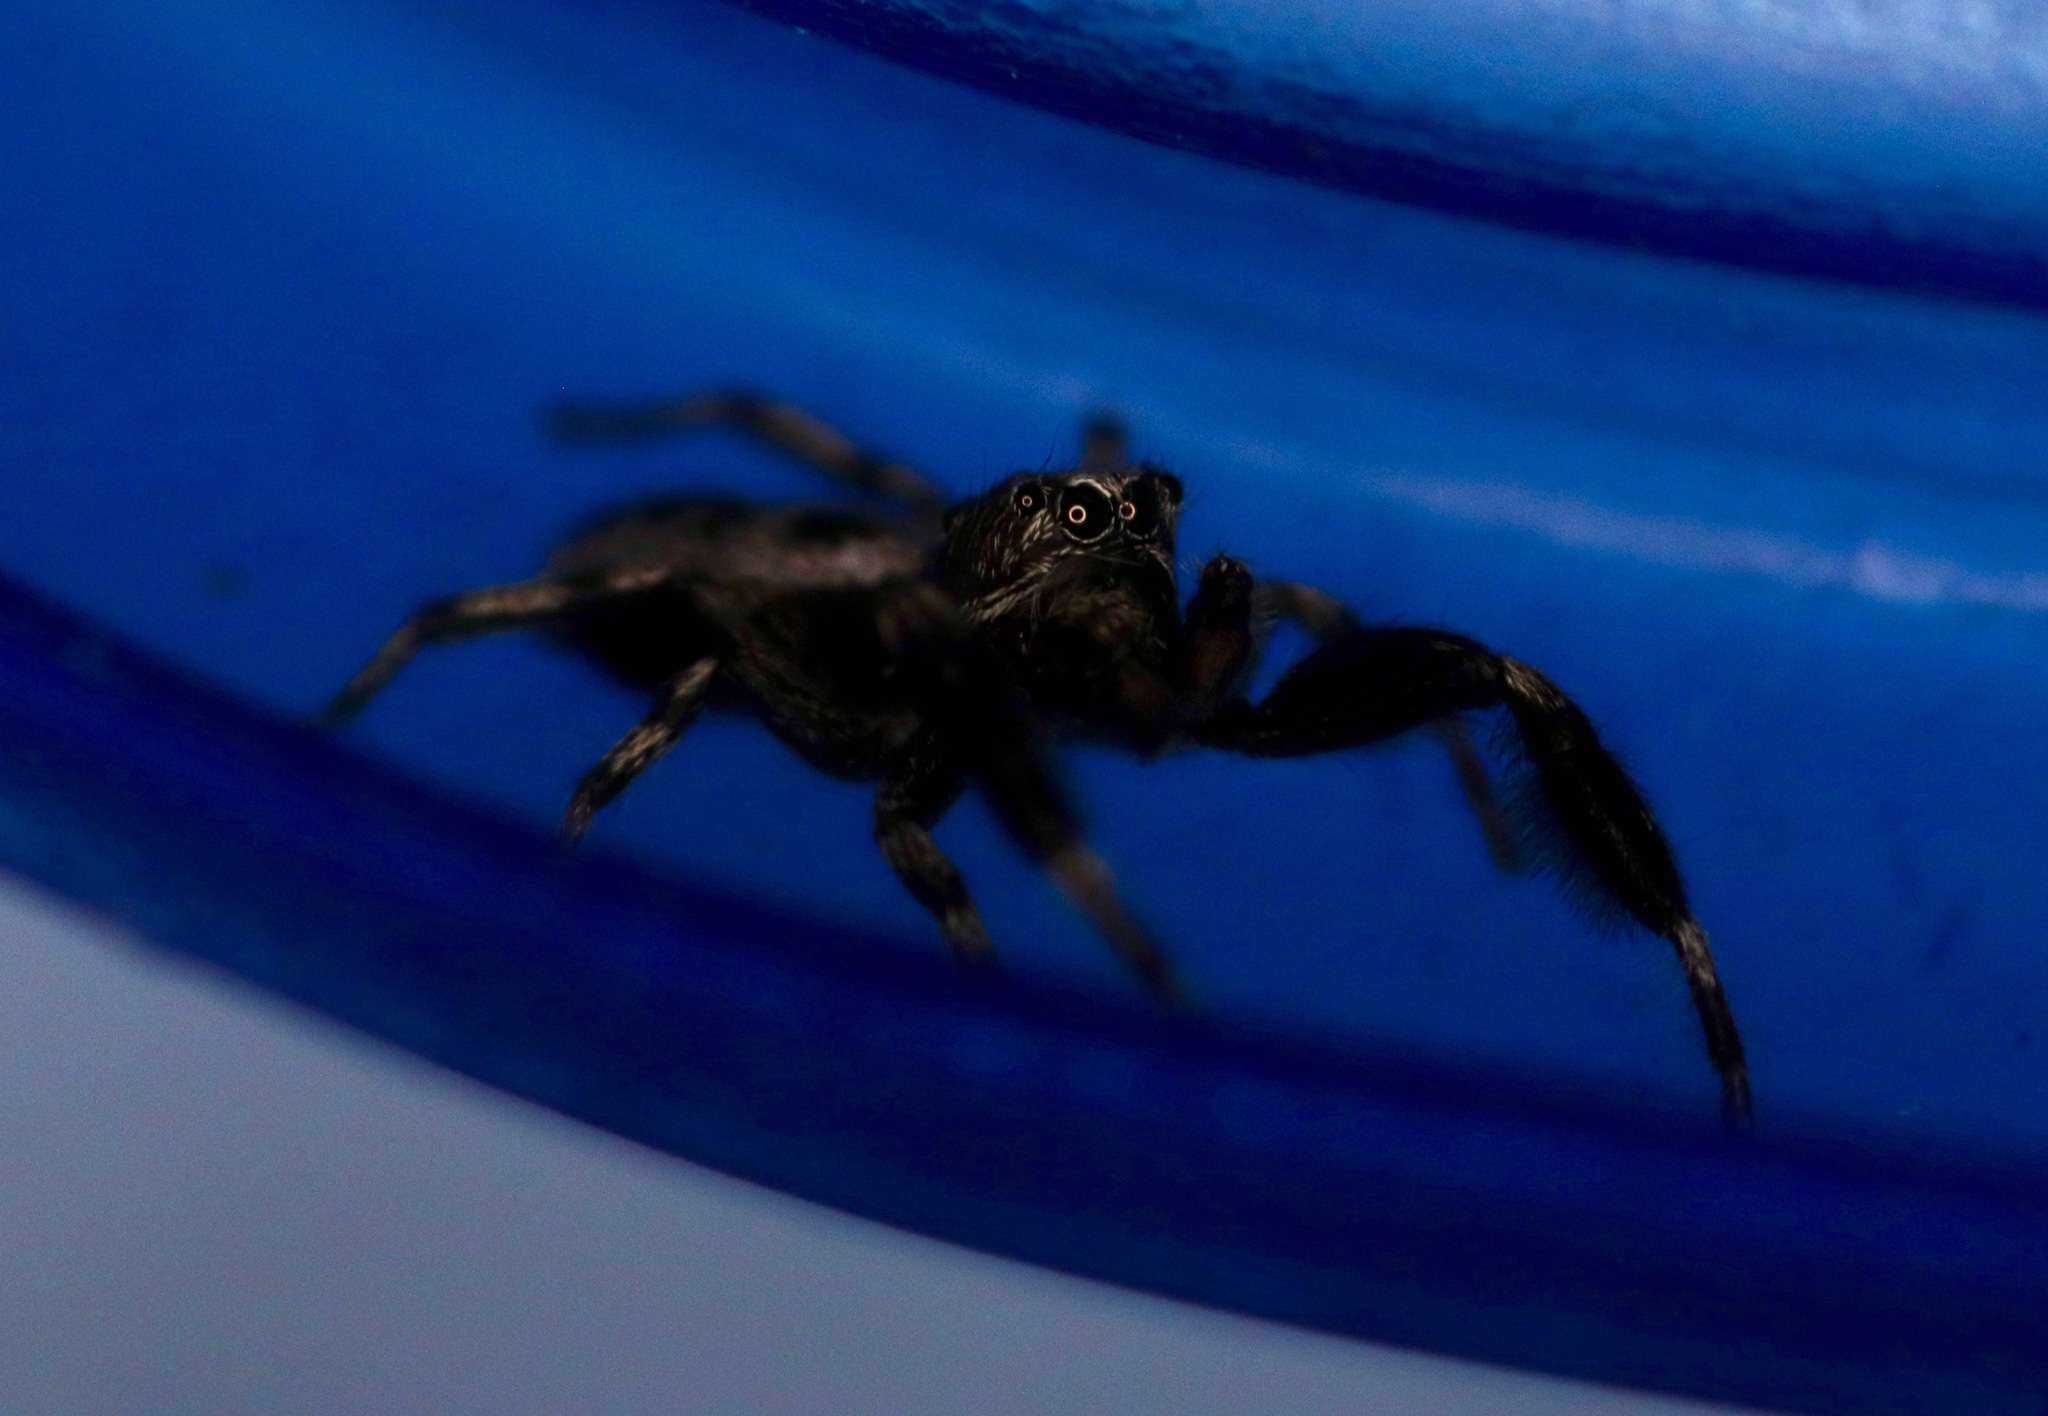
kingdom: Animalia
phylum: Arthropoda
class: Arachnida
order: Araneae
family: Salticidae
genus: Tutelina
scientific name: Tutelina harti
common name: Hart's jumping spider
